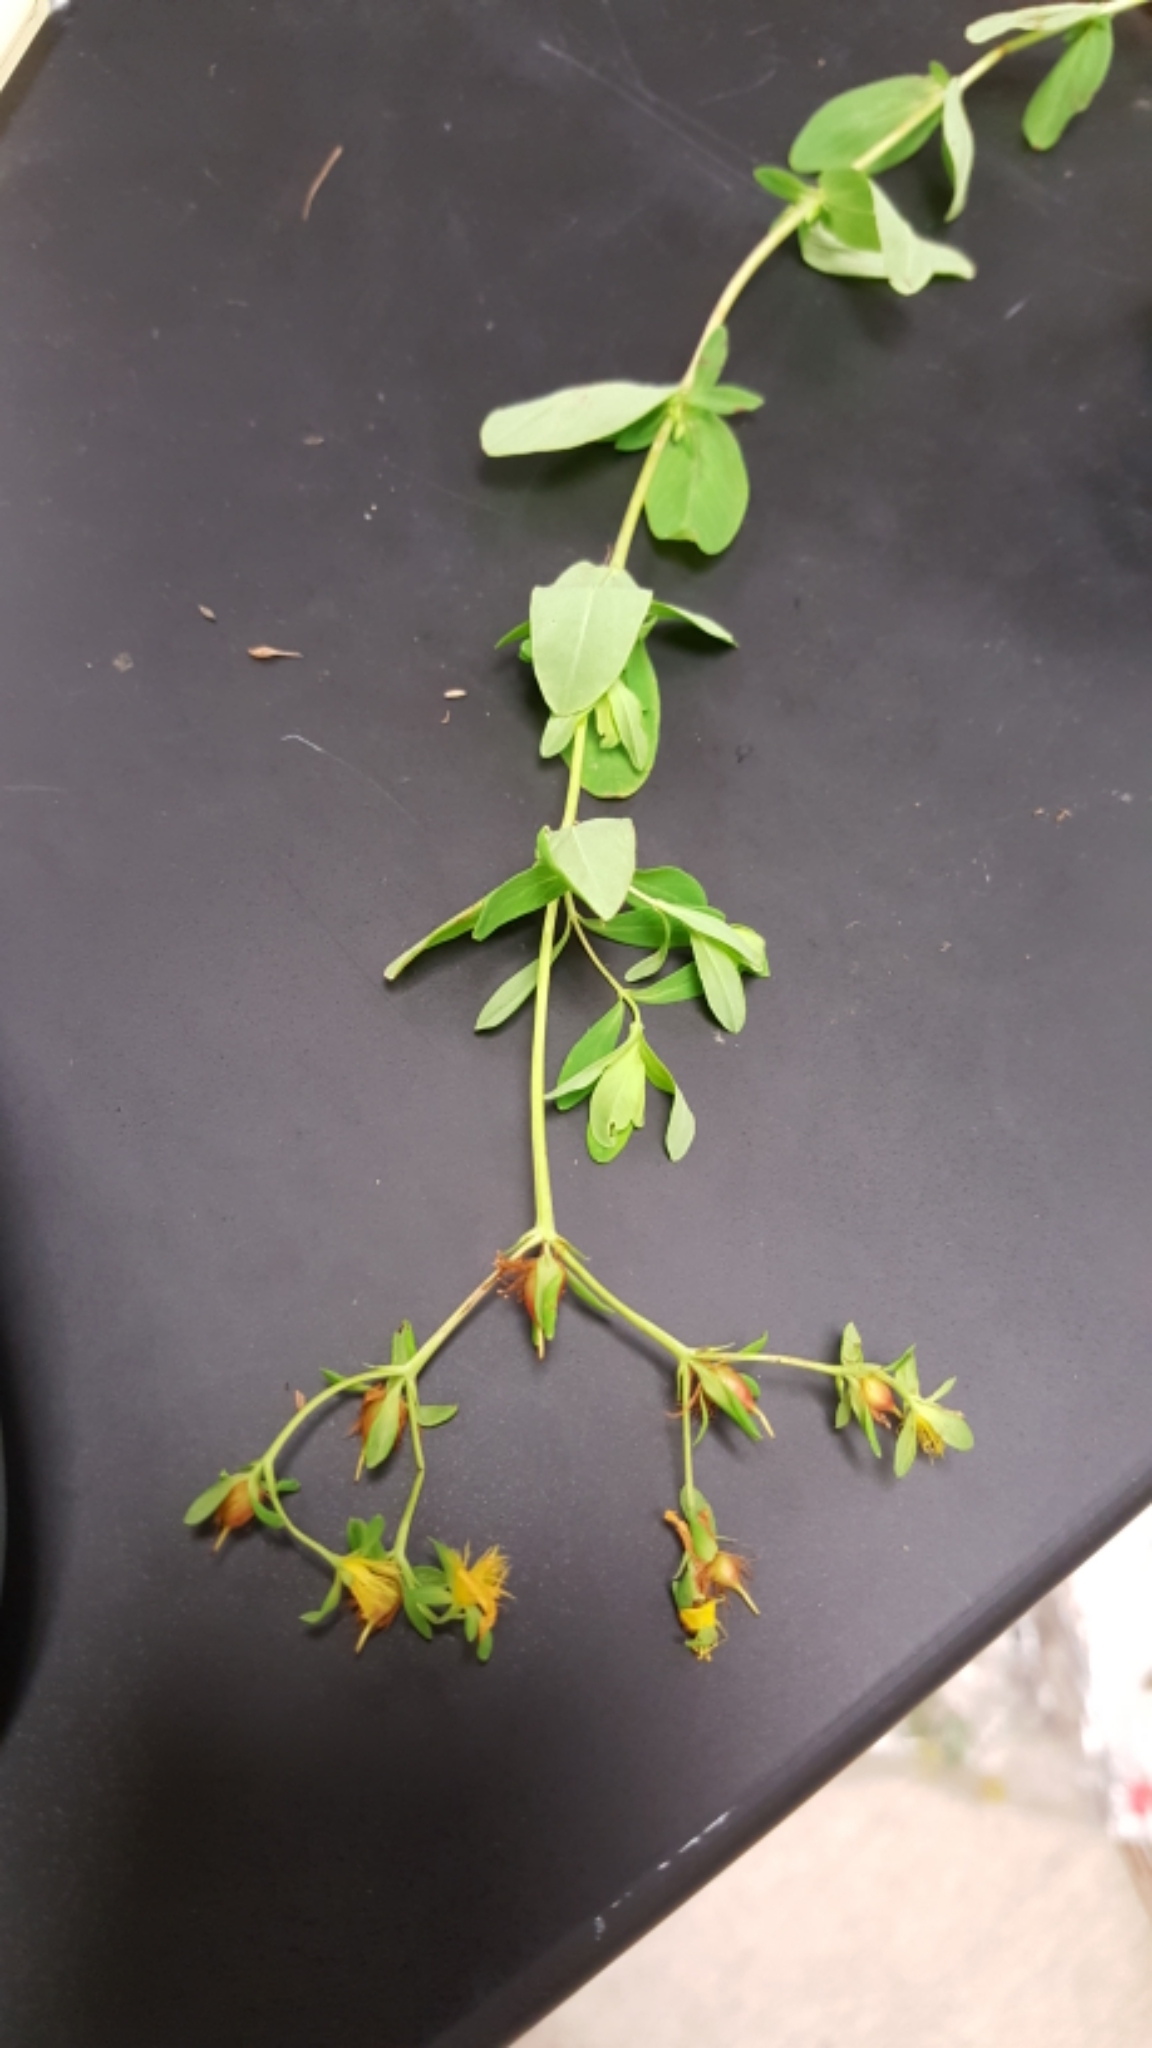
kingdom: Plantae
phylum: Tracheophyta
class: Magnoliopsida
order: Malpighiales
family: Hypericaceae
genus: Hypericum
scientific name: Hypericum ellipticum
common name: Elliptic st. john's-wort
